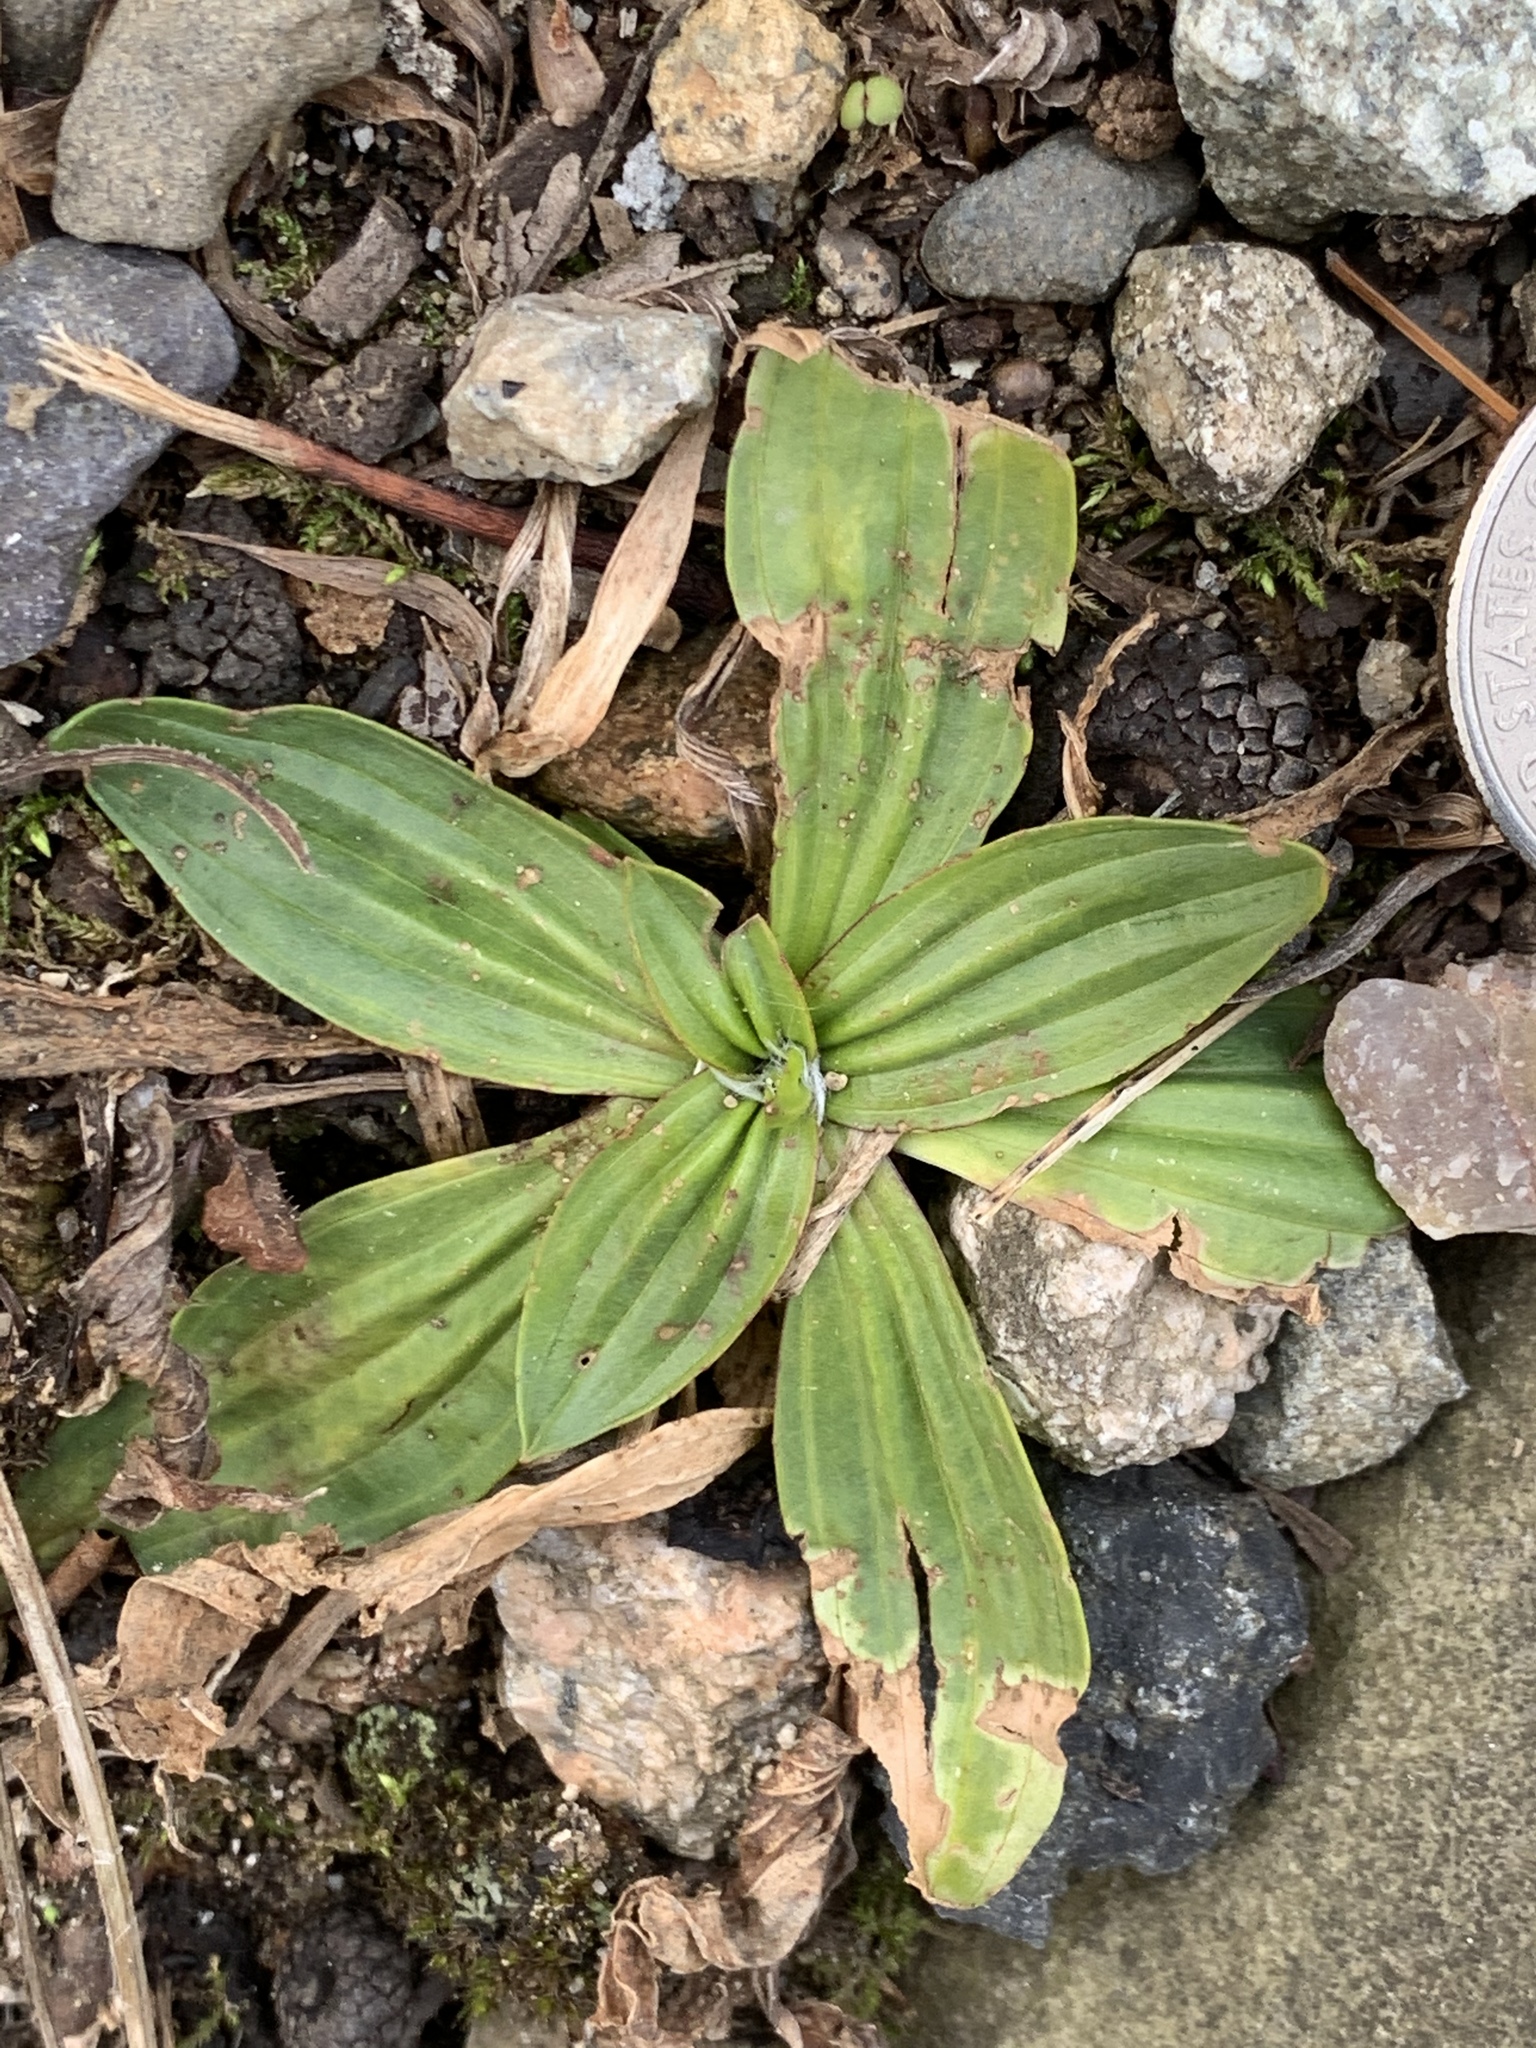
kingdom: Plantae
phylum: Tracheophyta
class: Magnoliopsida
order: Lamiales
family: Plantaginaceae
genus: Plantago
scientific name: Plantago lanceolata
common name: Ribwort plantain
